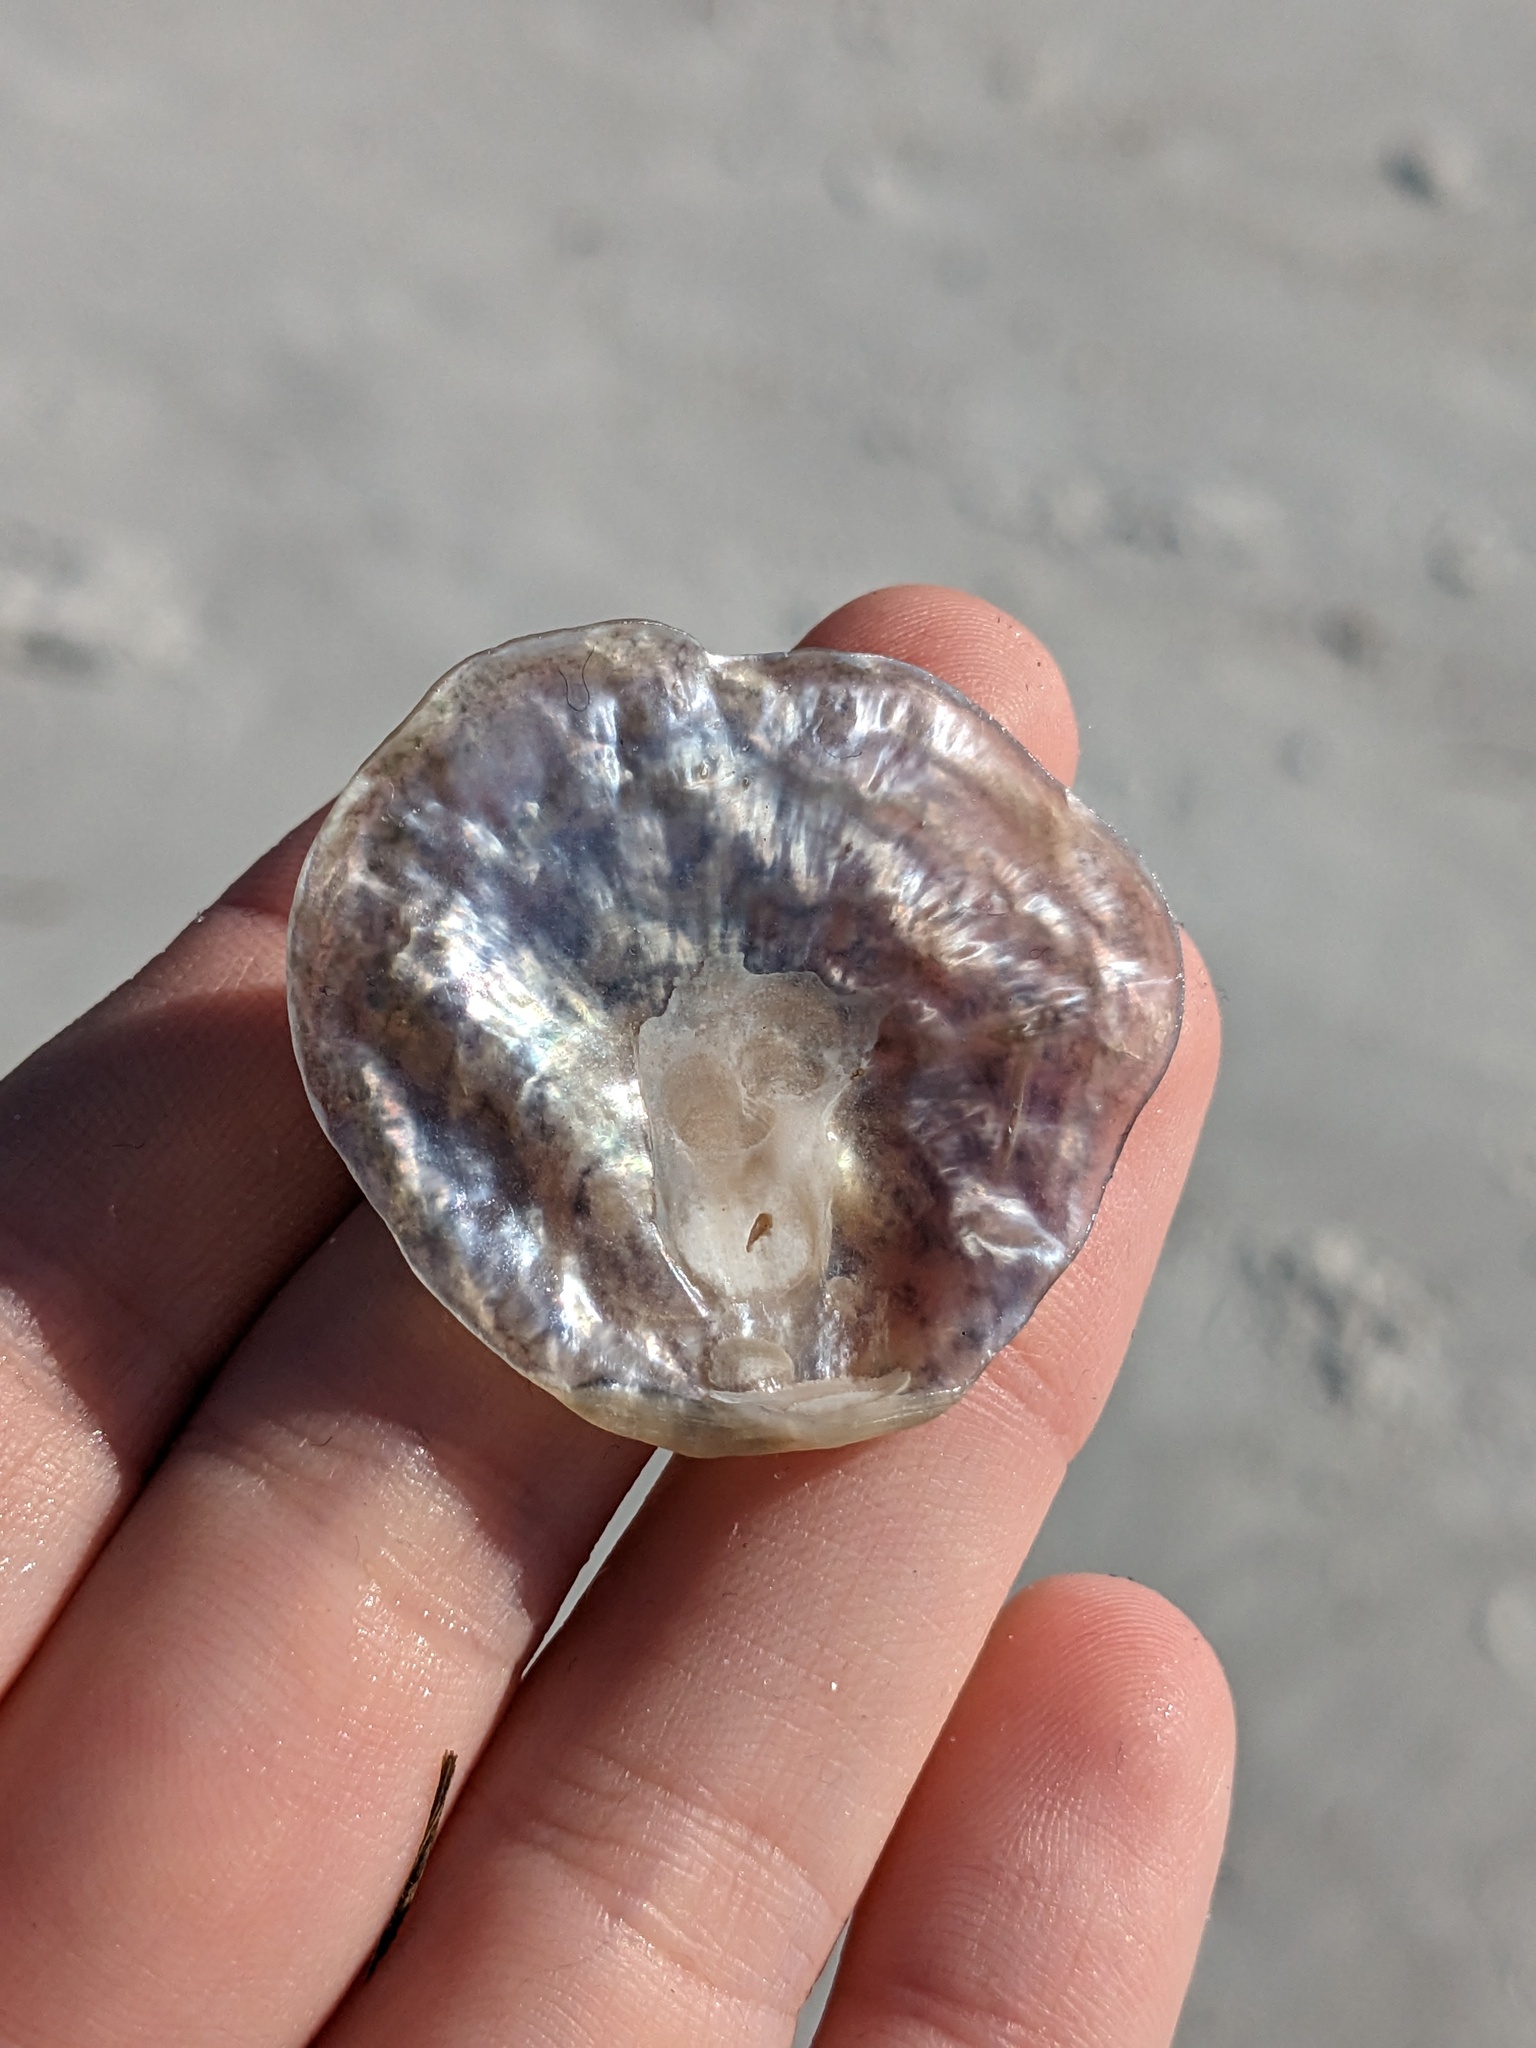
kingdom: Animalia
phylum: Mollusca
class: Bivalvia
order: Pectinida
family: Anomiidae
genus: Anomia
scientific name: Anomia simplex
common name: Common jingle shell
